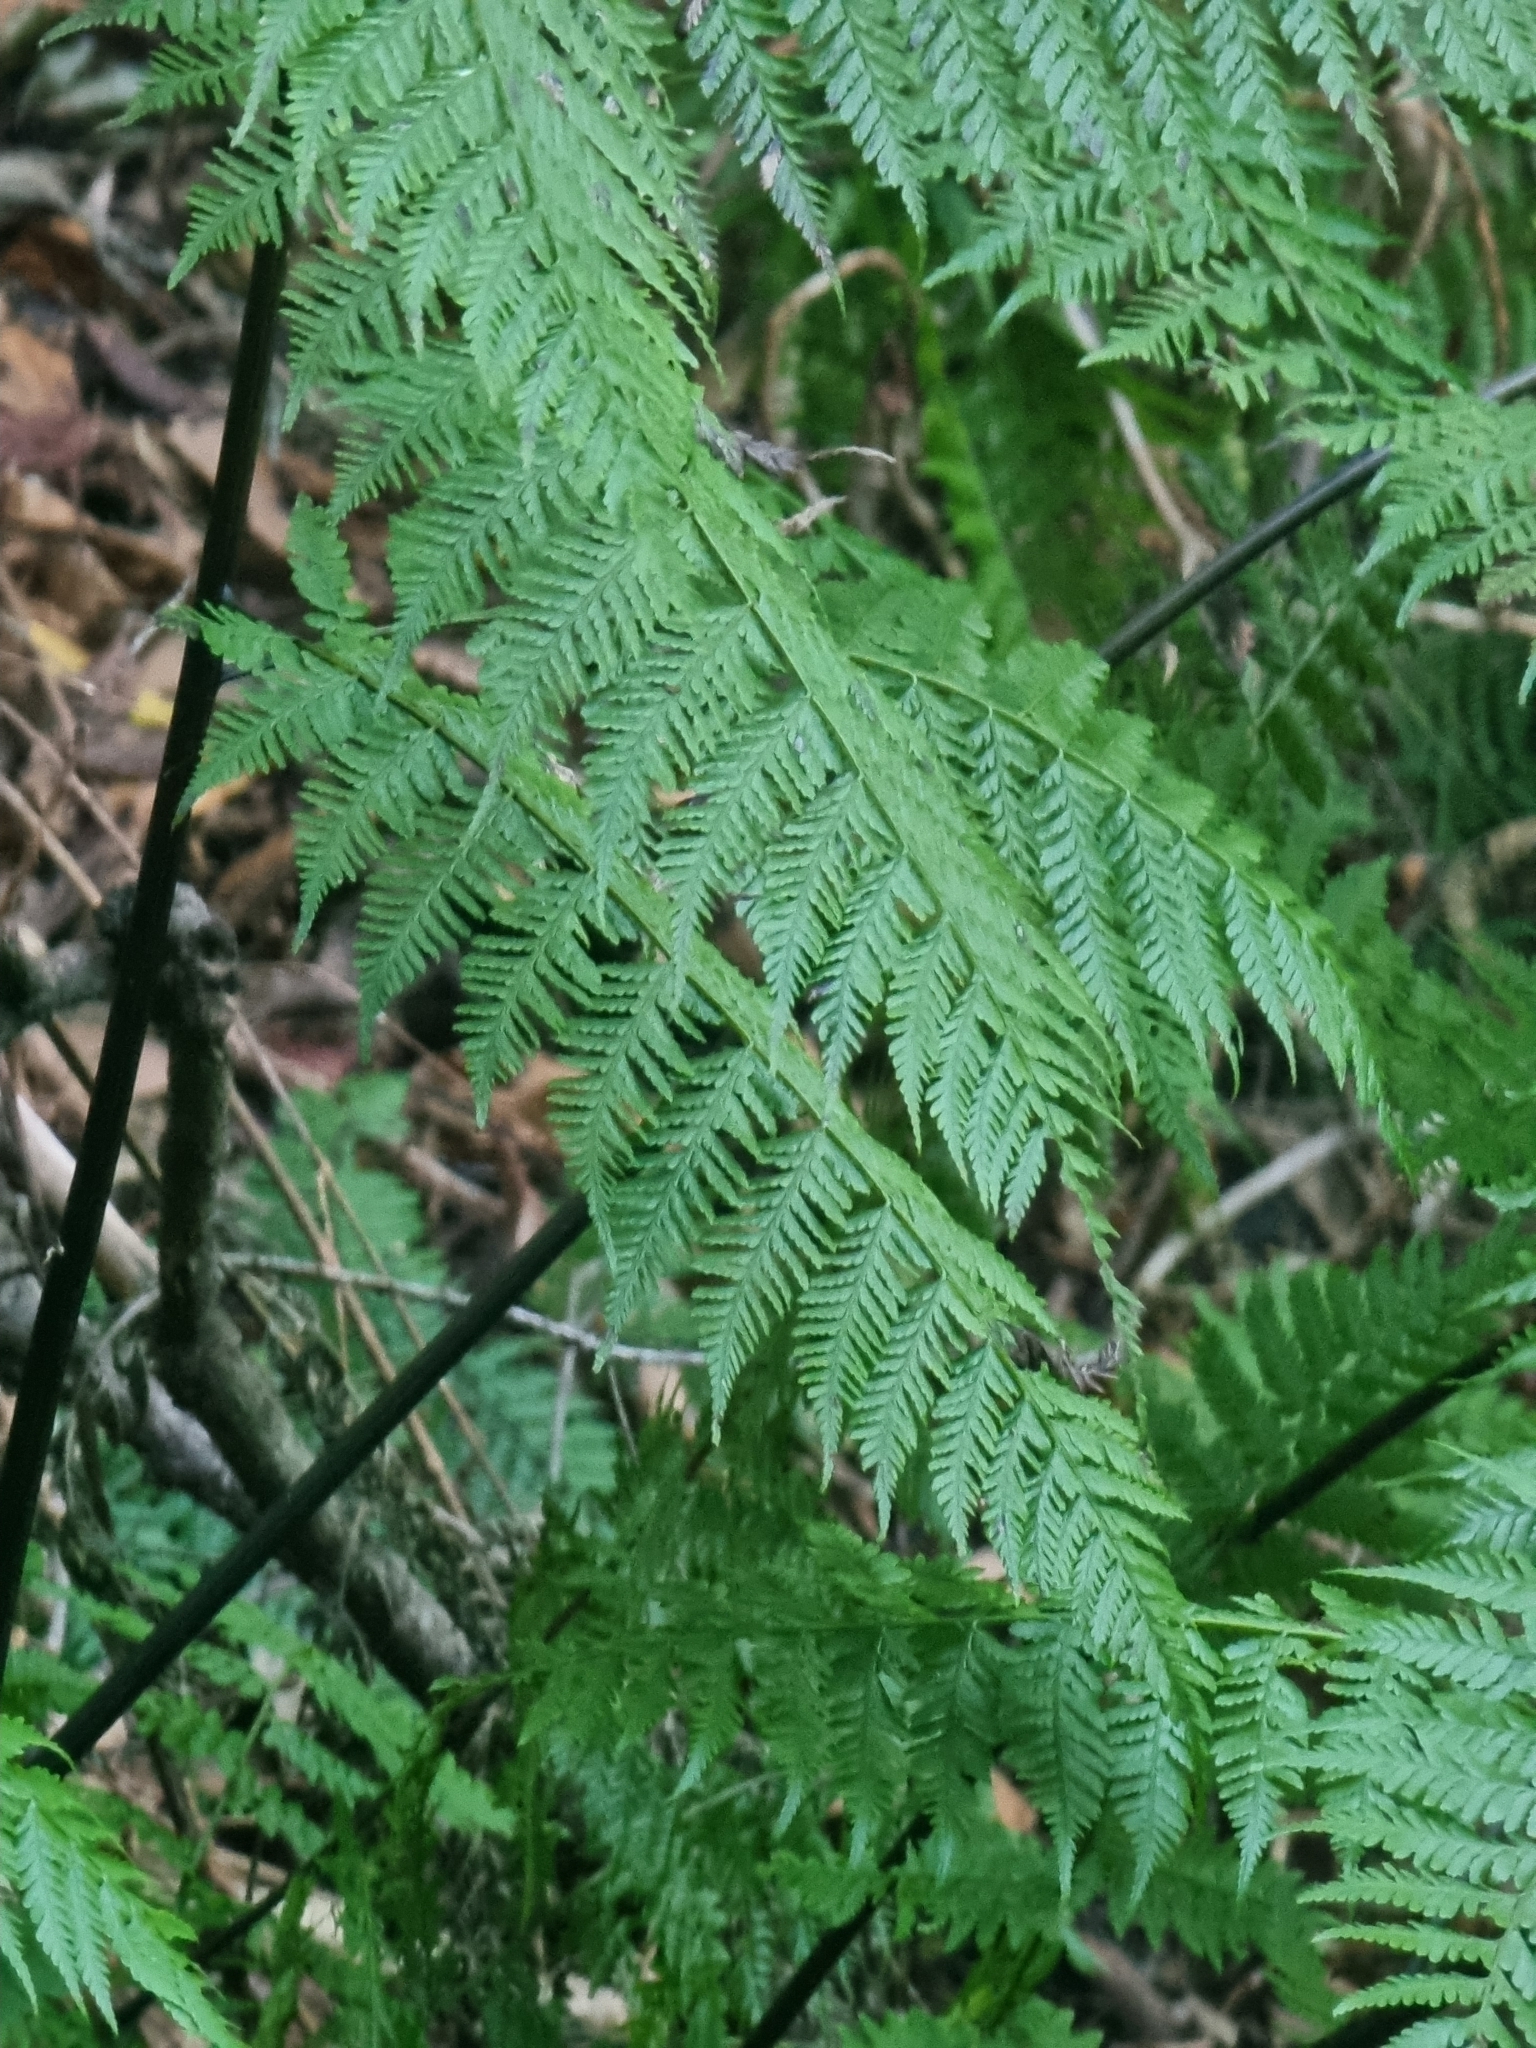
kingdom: Plantae
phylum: Tracheophyta
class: Polypodiopsida
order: Polypodiales
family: Athyriaceae
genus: Diplazium
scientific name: Diplazium caudatum
